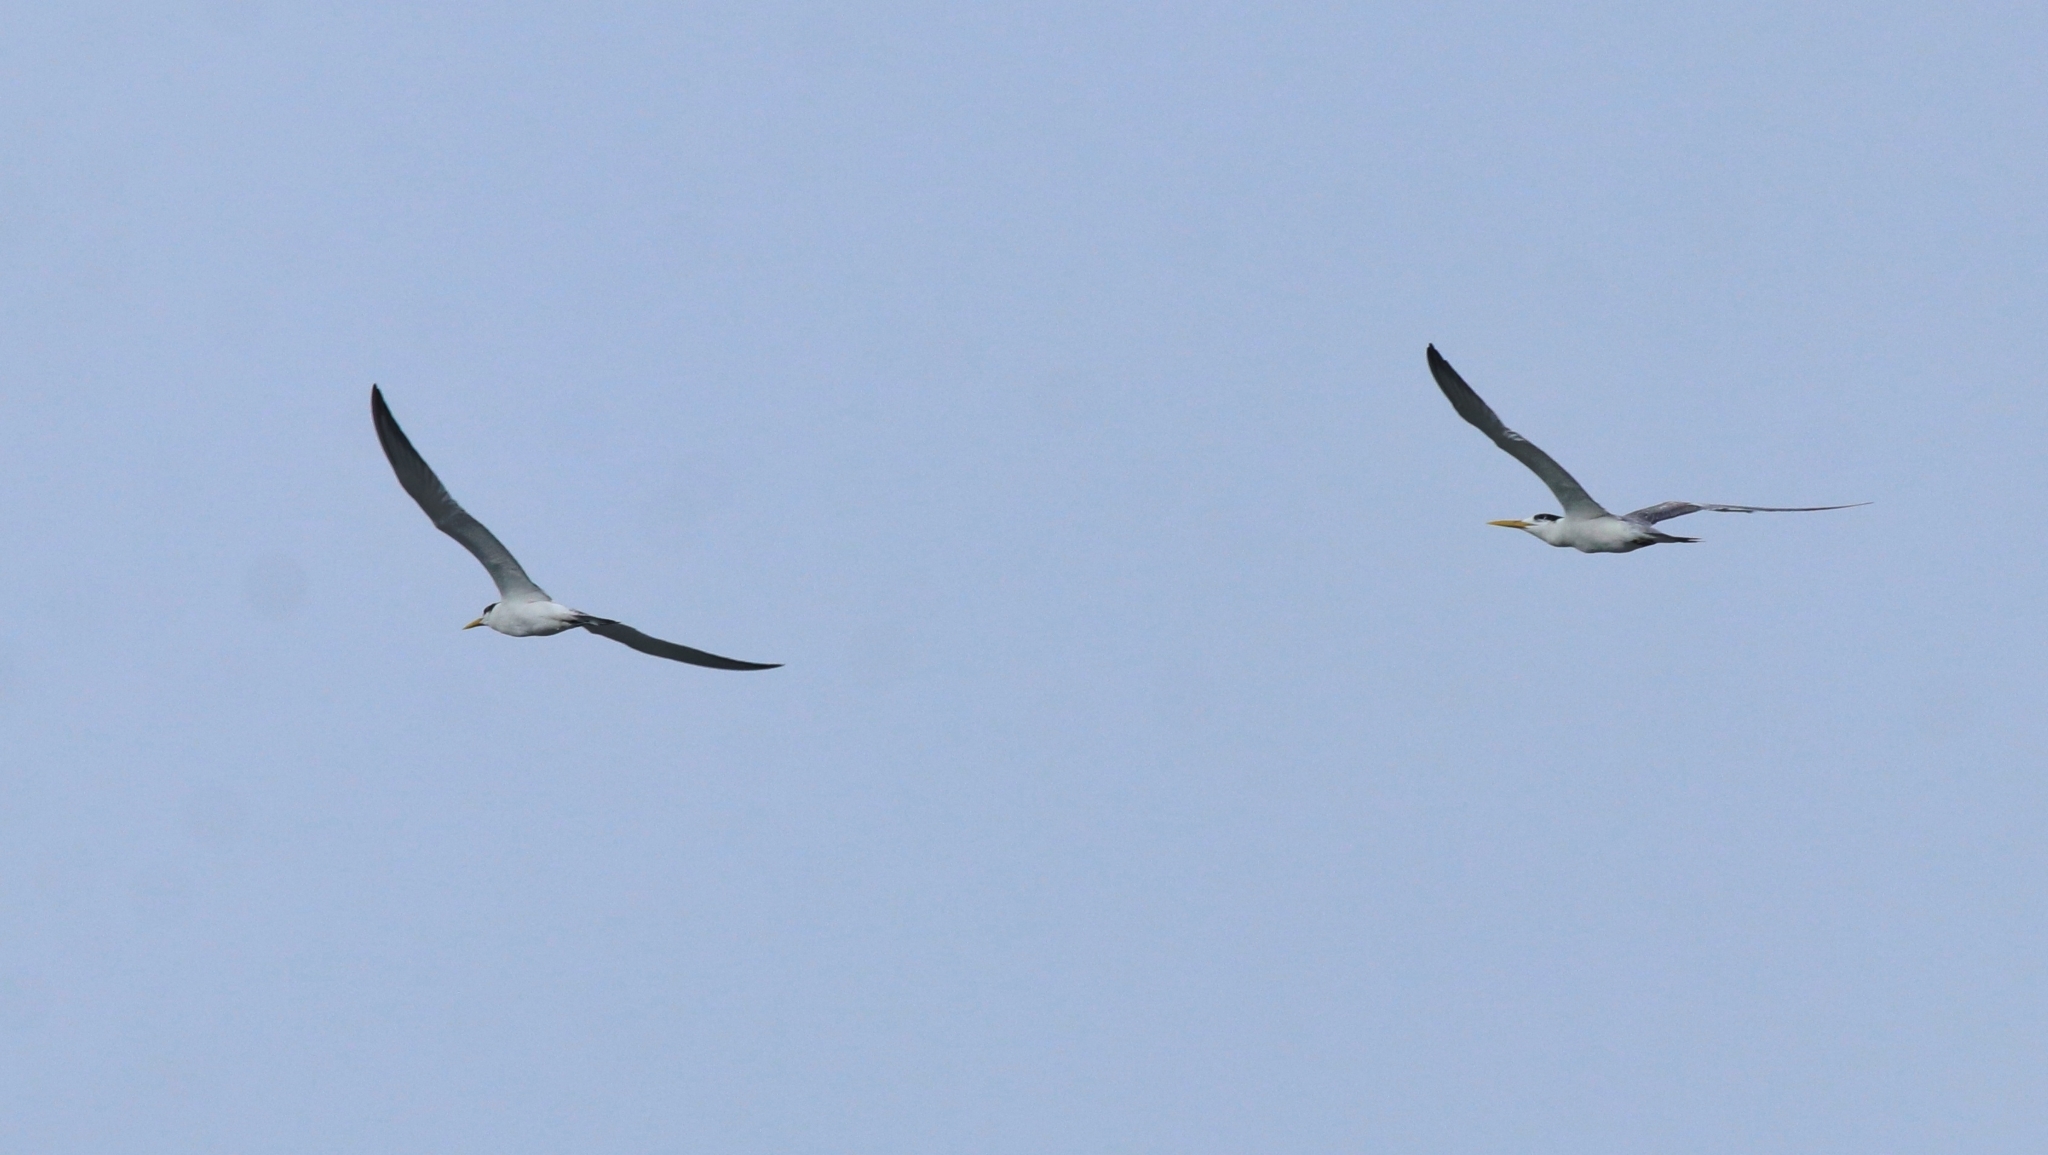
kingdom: Animalia
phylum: Chordata
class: Aves
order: Charadriiformes
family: Laridae
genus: Thalasseus
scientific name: Thalasseus bergii
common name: Greater crested tern
